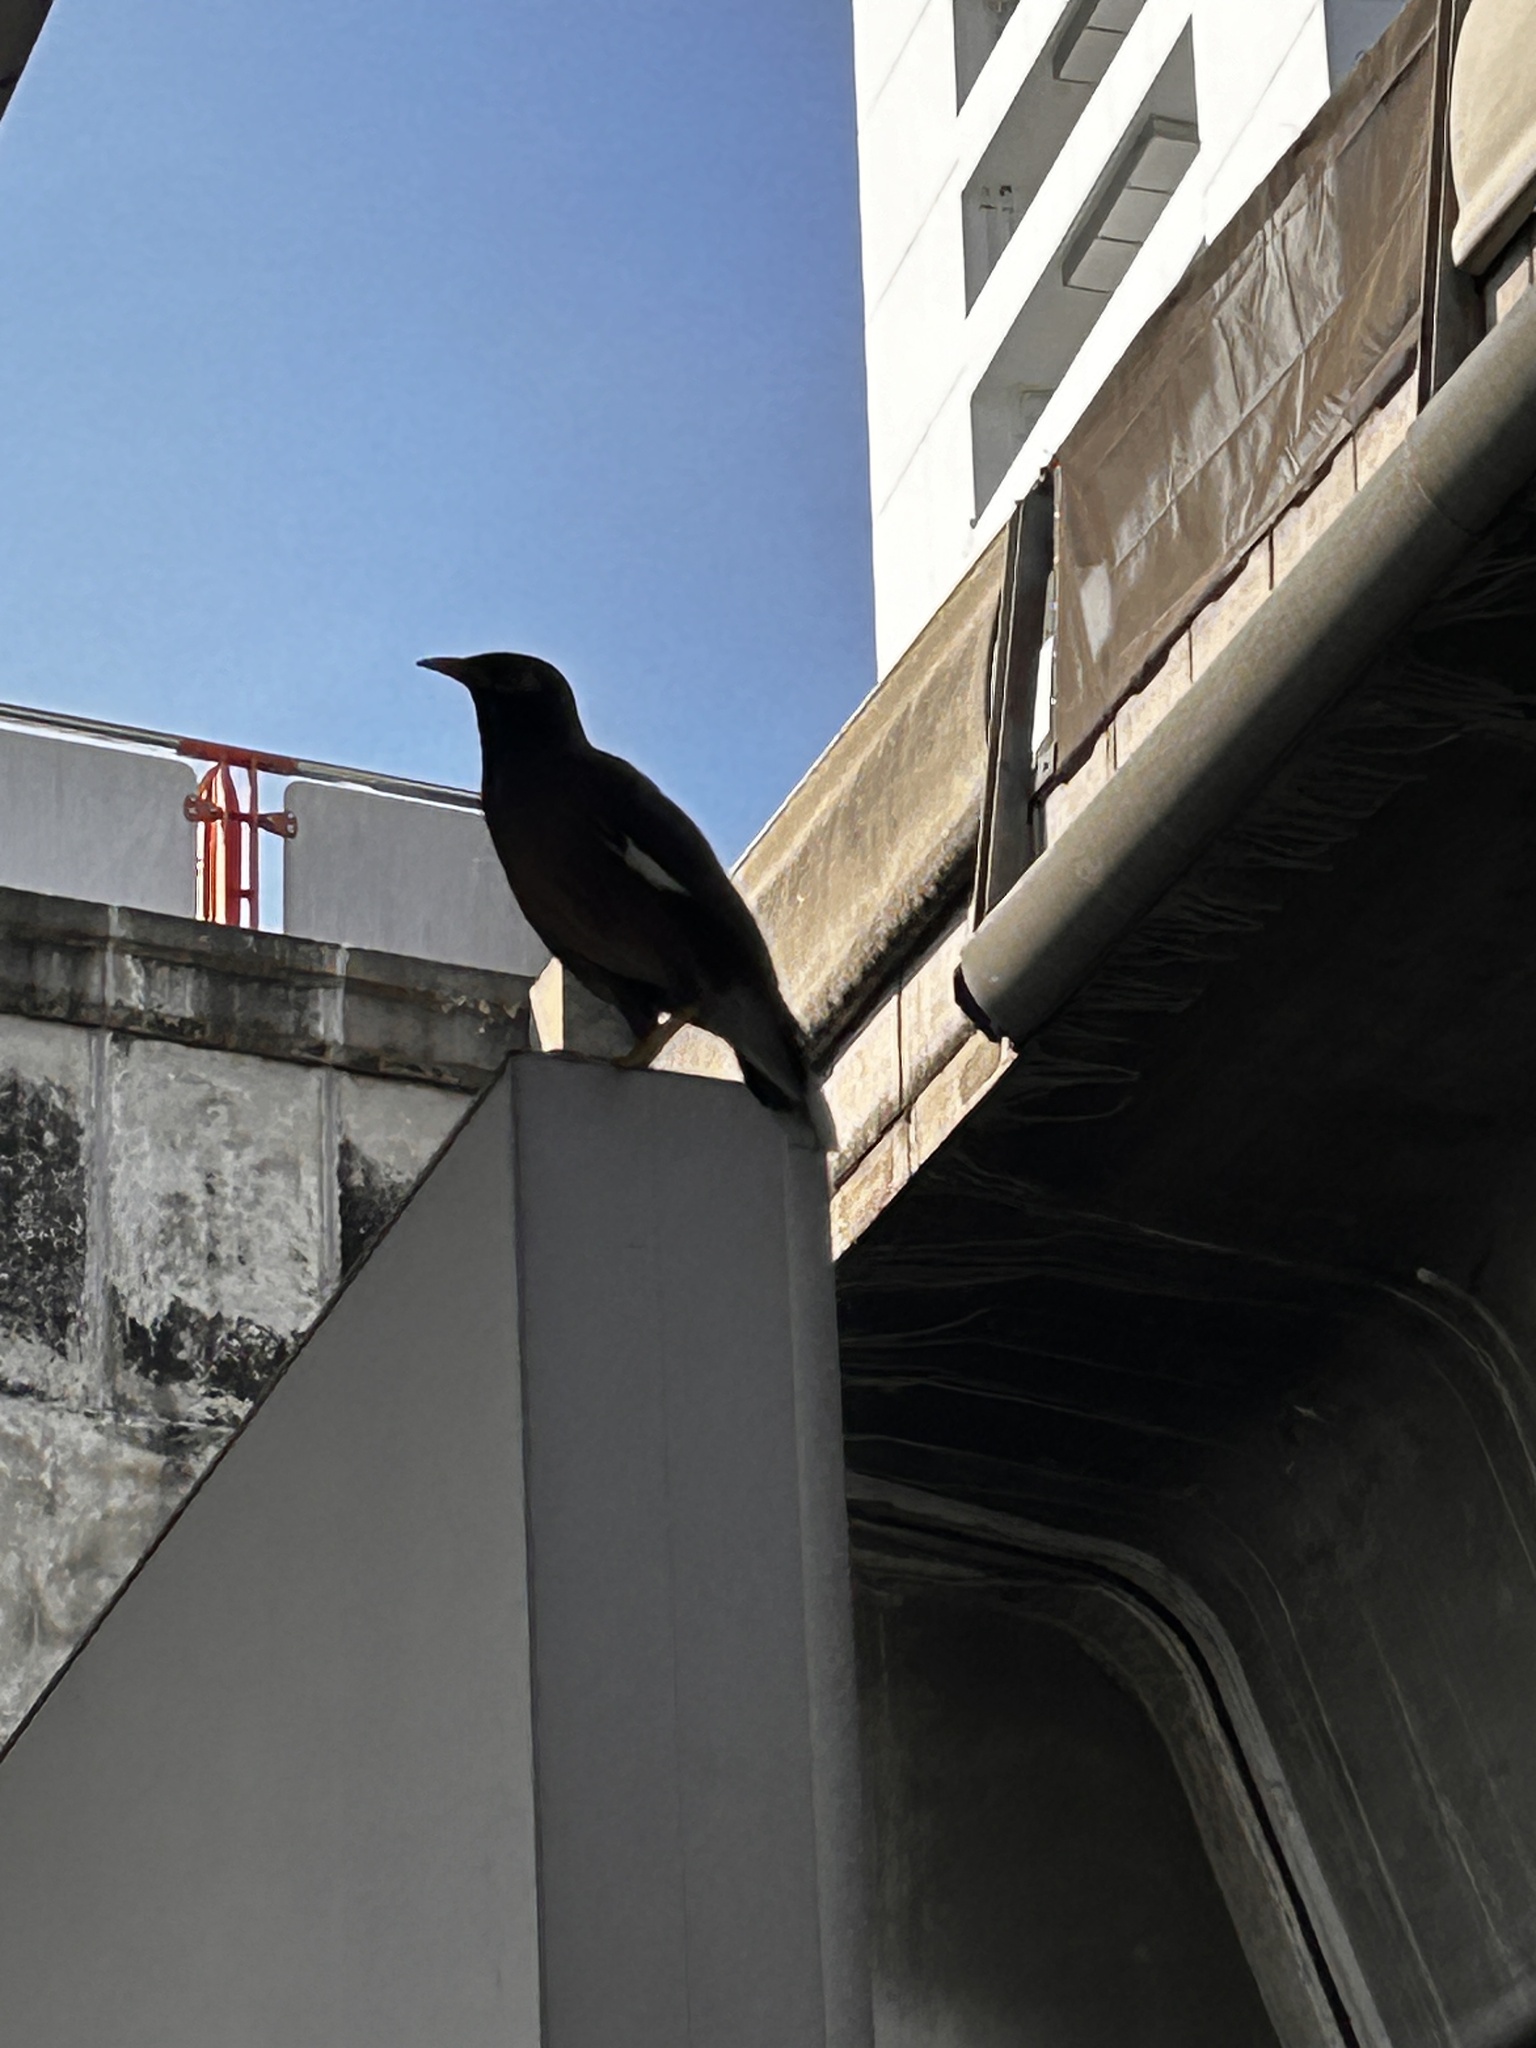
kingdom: Animalia
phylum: Chordata
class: Aves
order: Passeriformes
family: Sturnidae
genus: Acridotheres
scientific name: Acridotheres tristis
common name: Common myna
